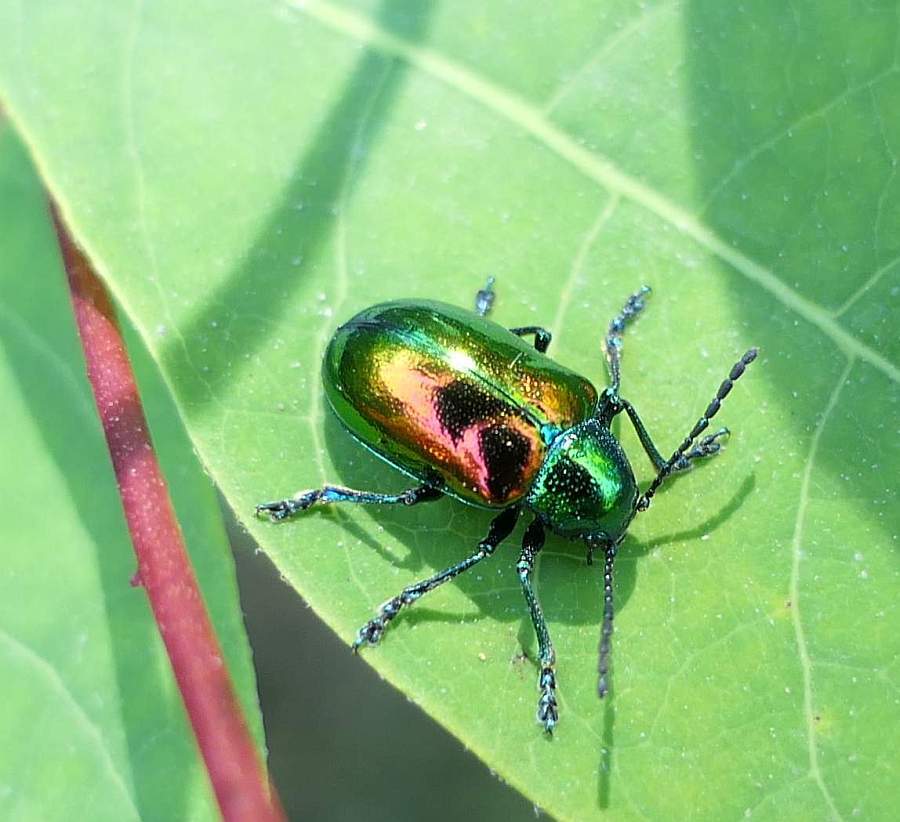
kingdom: Animalia
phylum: Arthropoda
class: Insecta
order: Coleoptera
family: Chrysomelidae
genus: Chrysochus
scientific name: Chrysochus auratus
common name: Dogbane leaf beetle
